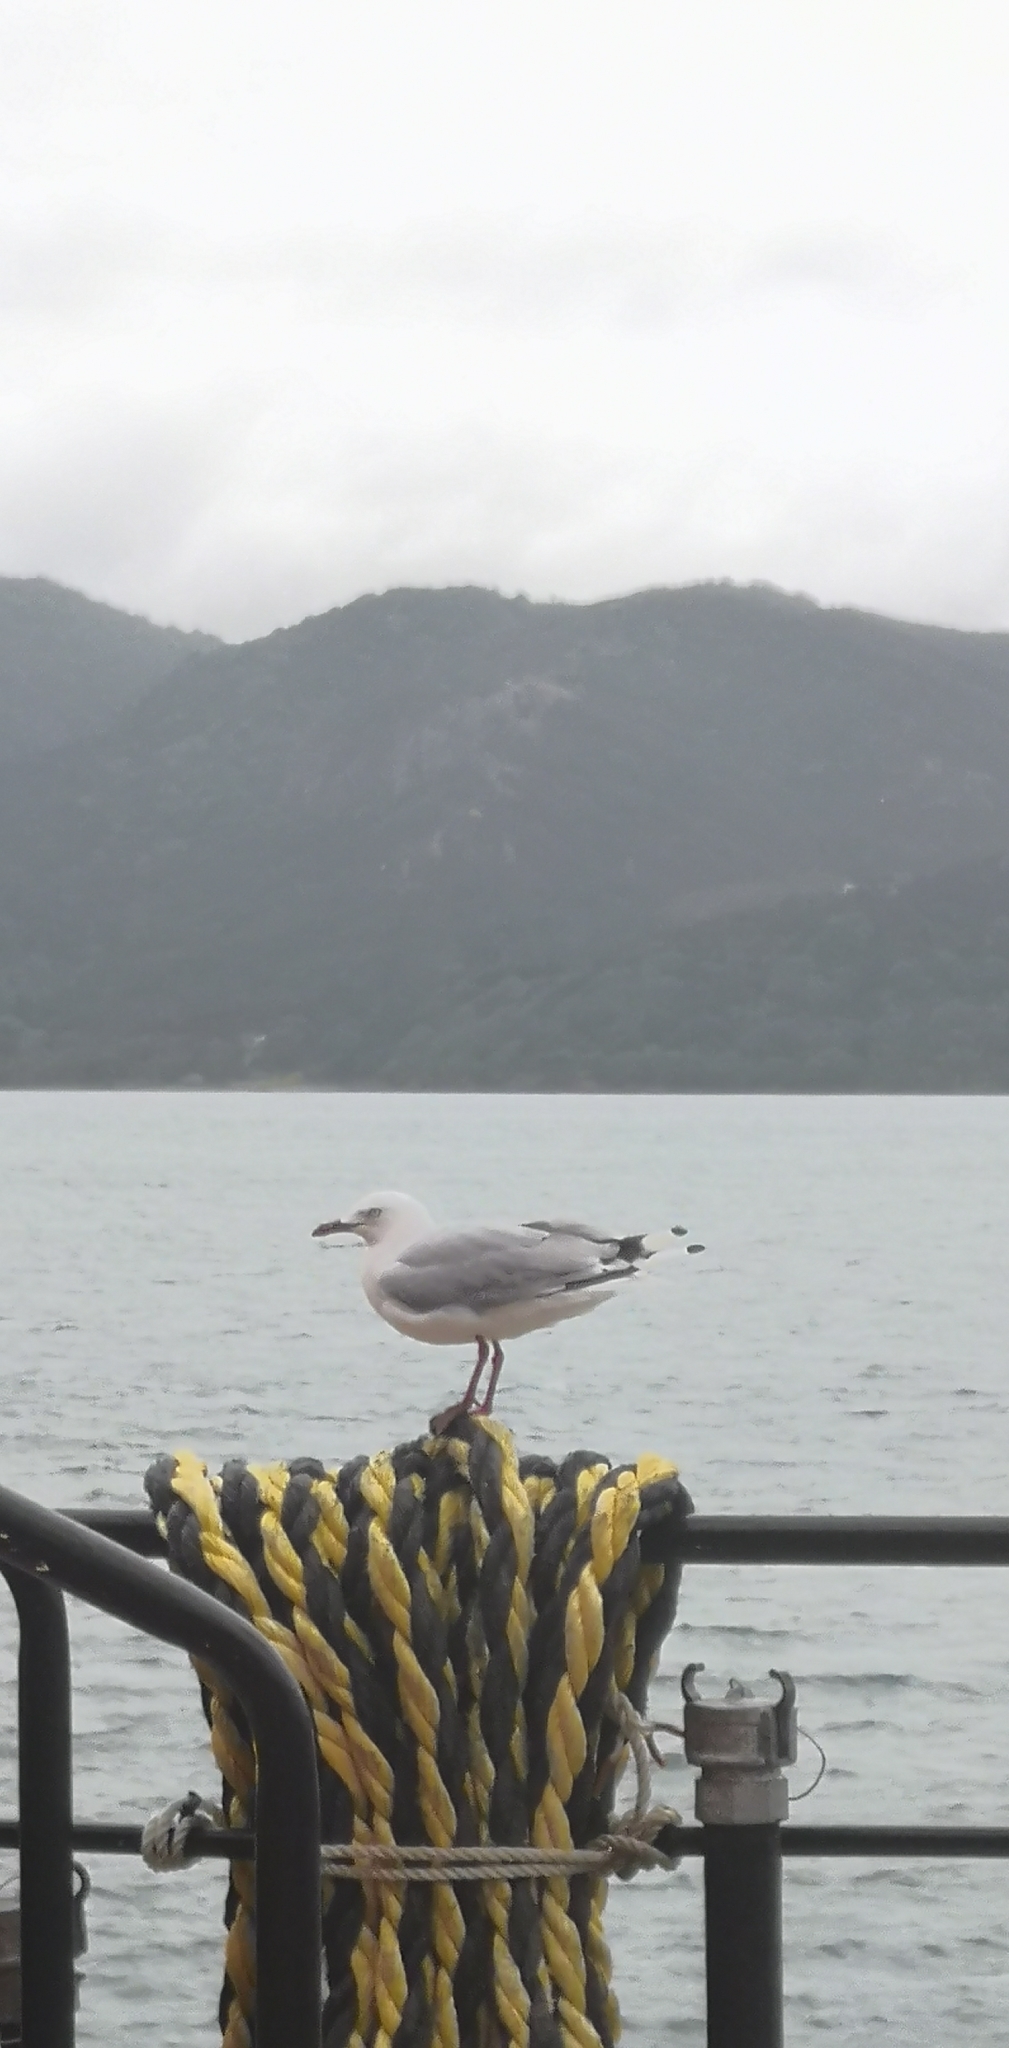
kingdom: Animalia
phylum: Chordata
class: Aves
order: Charadriiformes
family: Laridae
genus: Chroicocephalus
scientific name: Chroicocephalus novaehollandiae
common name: Silver gull
